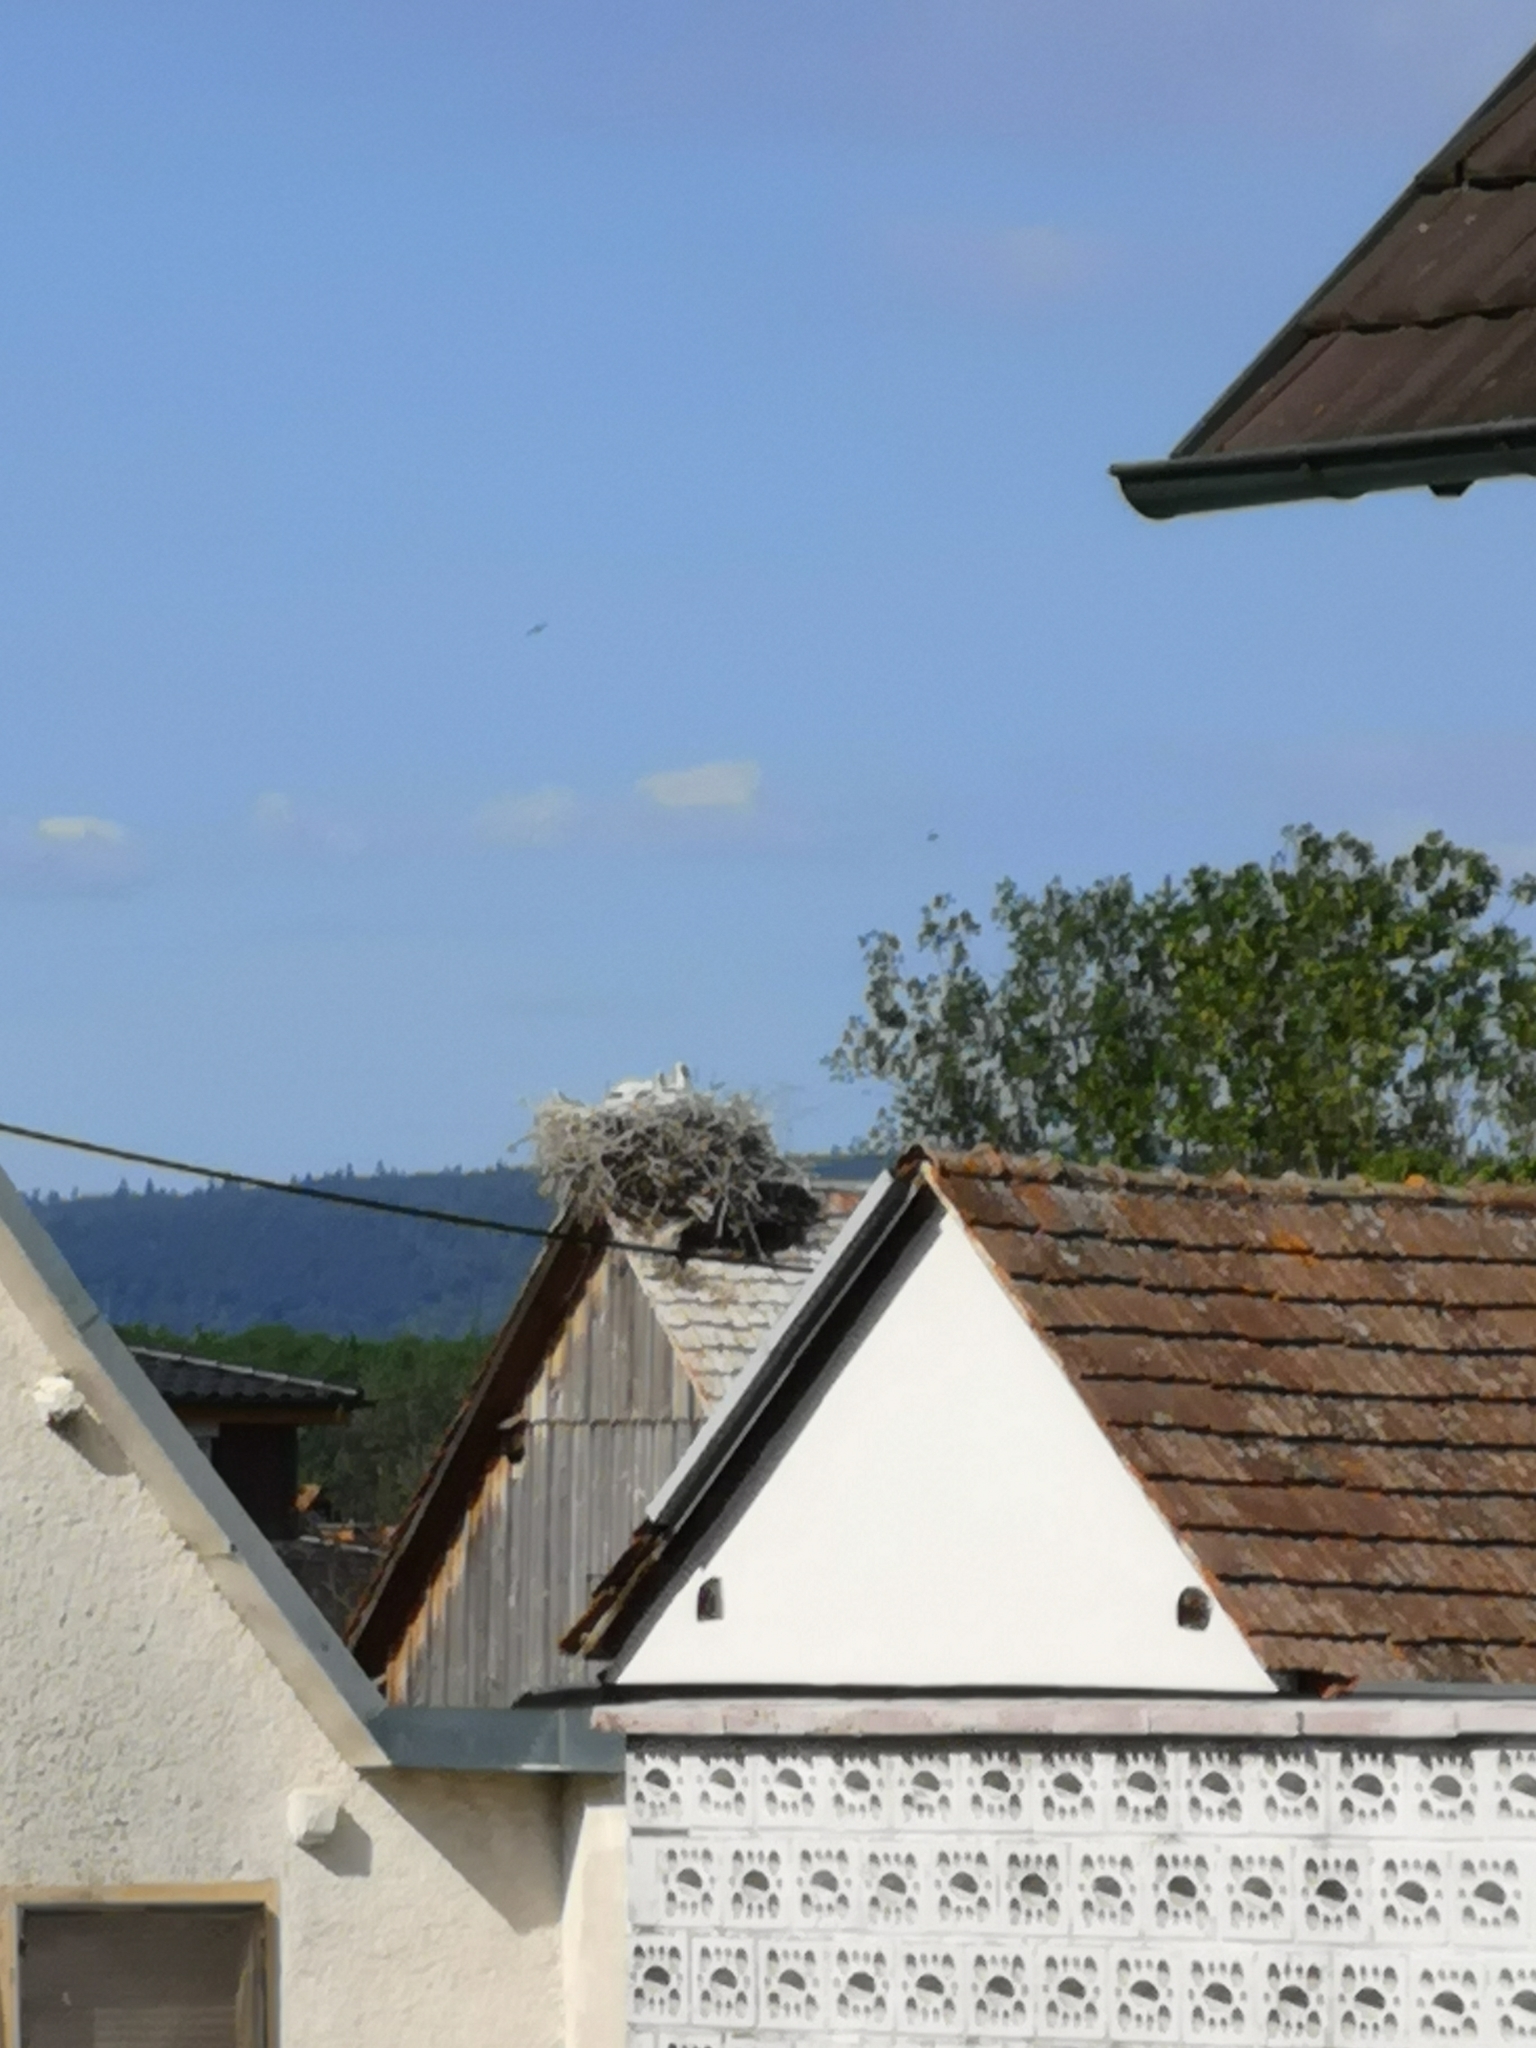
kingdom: Animalia
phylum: Chordata
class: Aves
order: Ciconiiformes
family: Ciconiidae
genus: Ciconia
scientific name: Ciconia ciconia
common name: White stork
